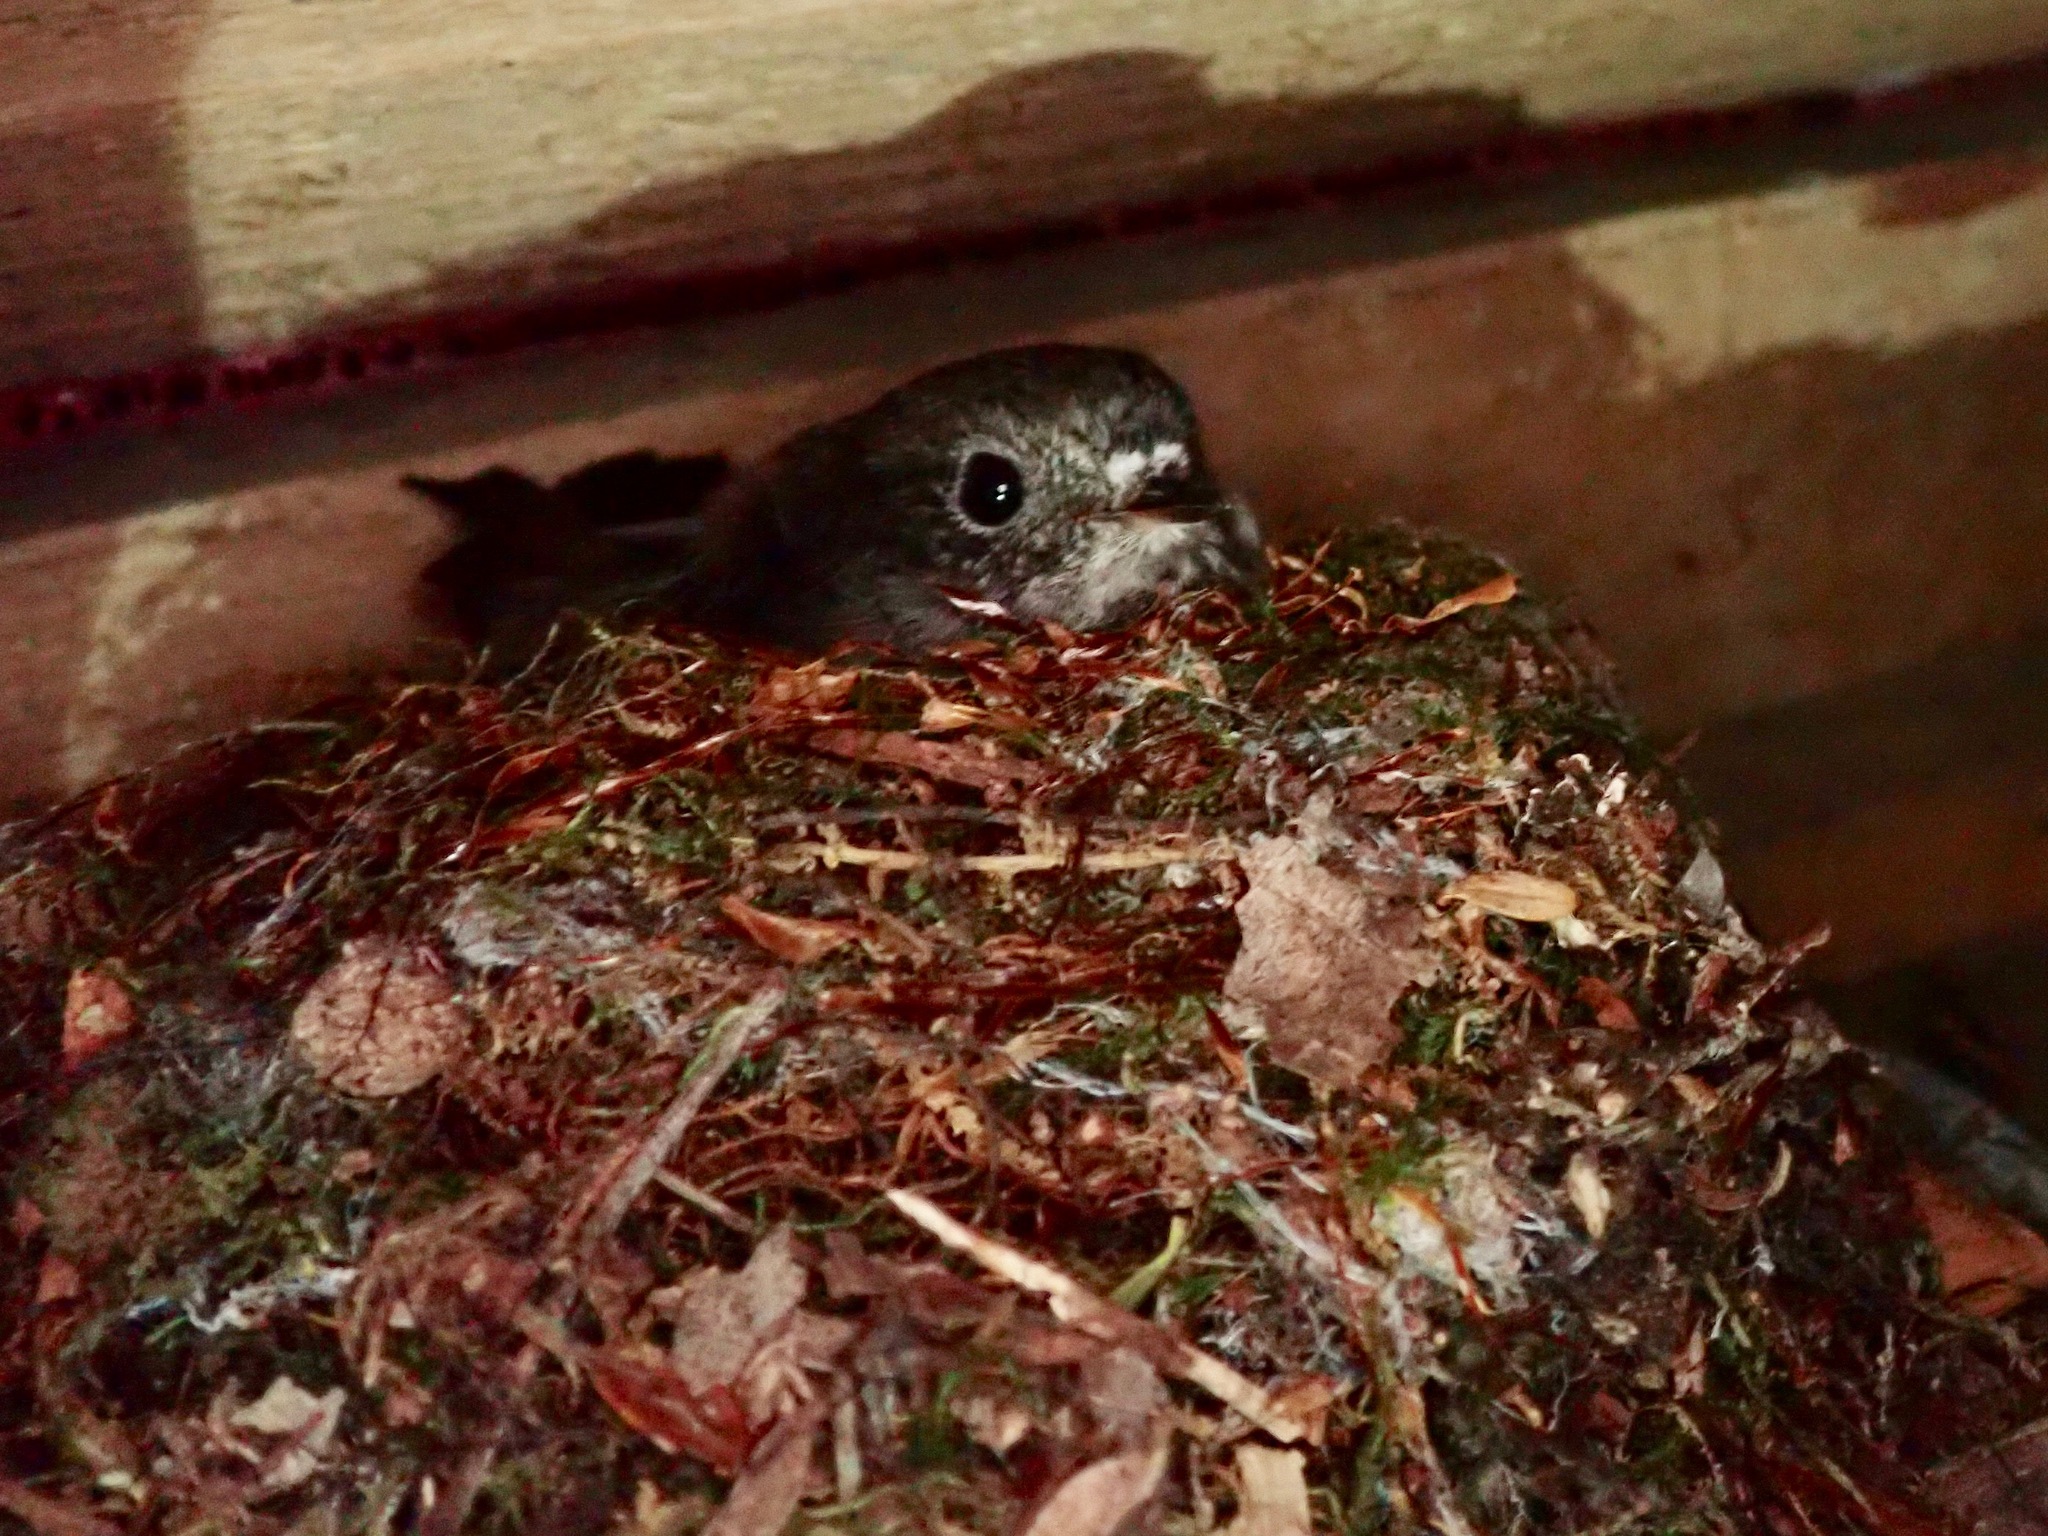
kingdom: Animalia
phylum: Chordata
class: Aves
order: Passeriformes
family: Petroicidae
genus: Petroica
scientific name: Petroica macrocephala
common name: Tomtit
